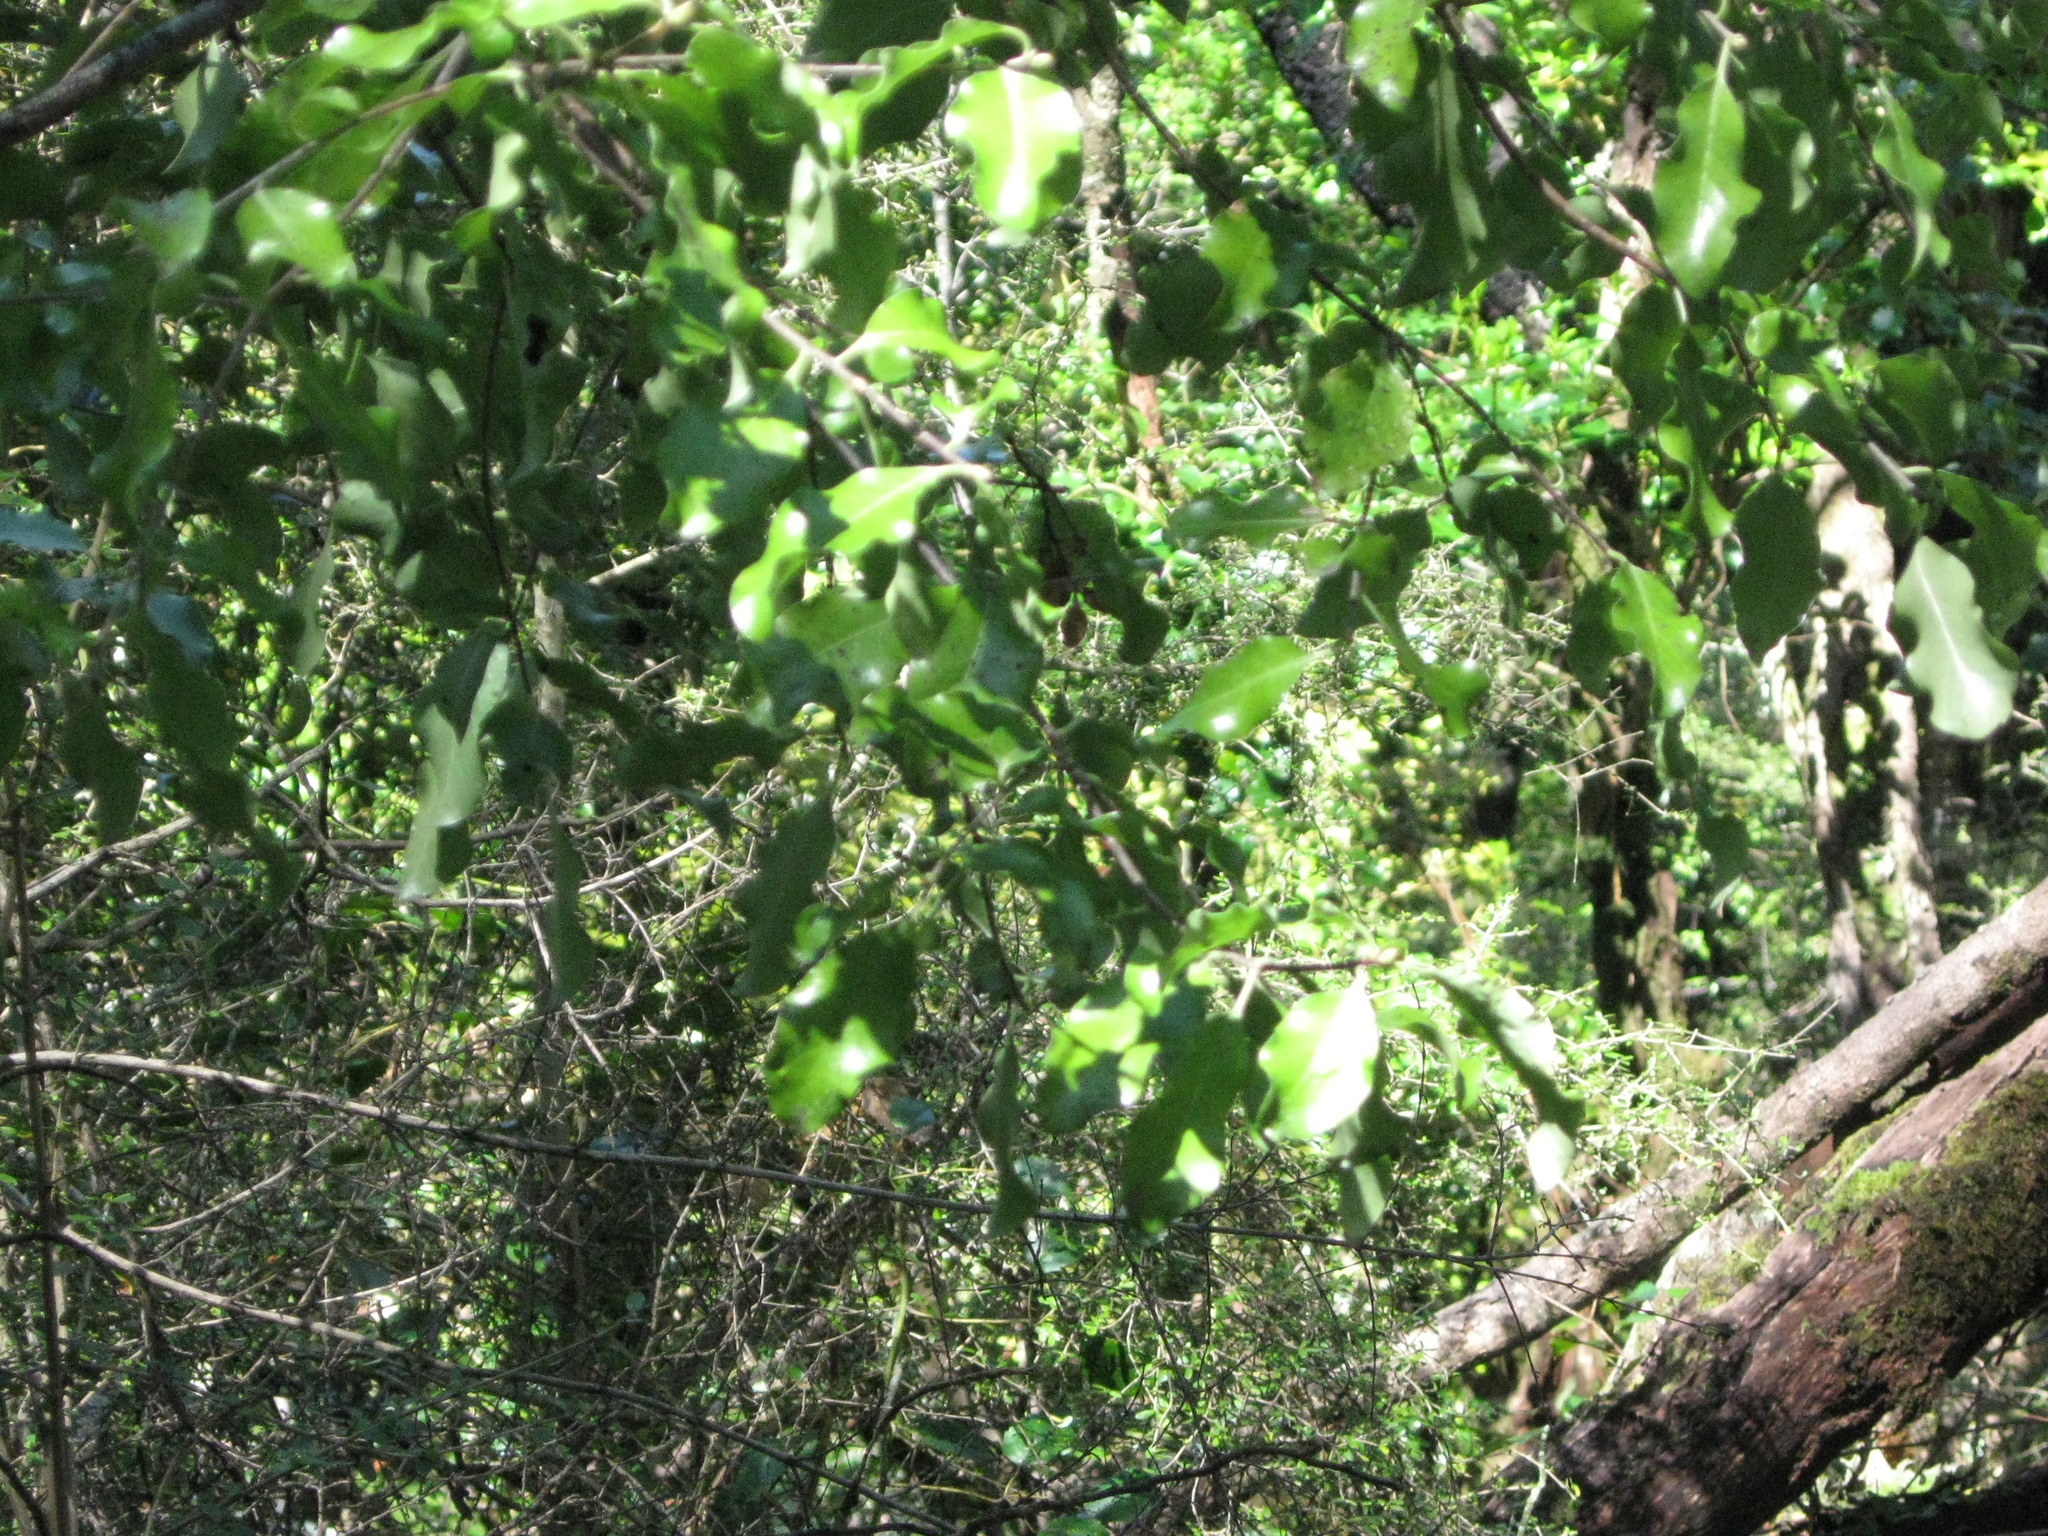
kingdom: Plantae
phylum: Tracheophyta
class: Magnoliopsida
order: Apiales
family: Pittosporaceae
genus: Pittosporum
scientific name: Pittosporum tenuifolium
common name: Kohuhu
